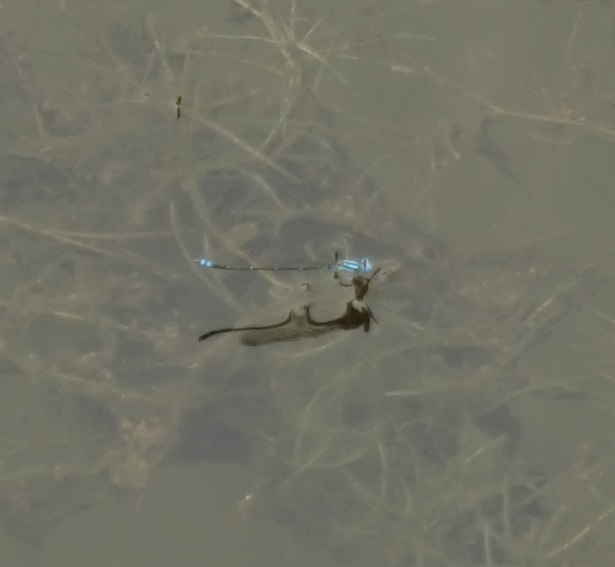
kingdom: Animalia
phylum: Arthropoda
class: Insecta
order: Odonata
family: Coenagrionidae
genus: Pseudagrion
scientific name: Pseudagrion microcephalum
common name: Blue riverdamsel
